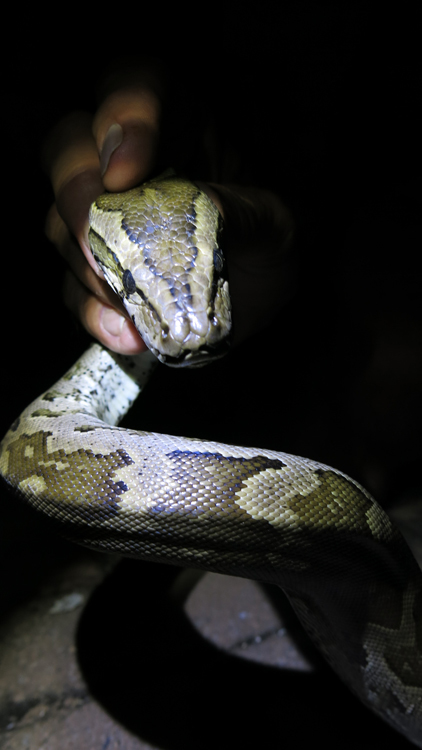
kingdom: Animalia
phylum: Chordata
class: Squamata
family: Pythonidae
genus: Python
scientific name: Python natalensis
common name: Southern african rock python
